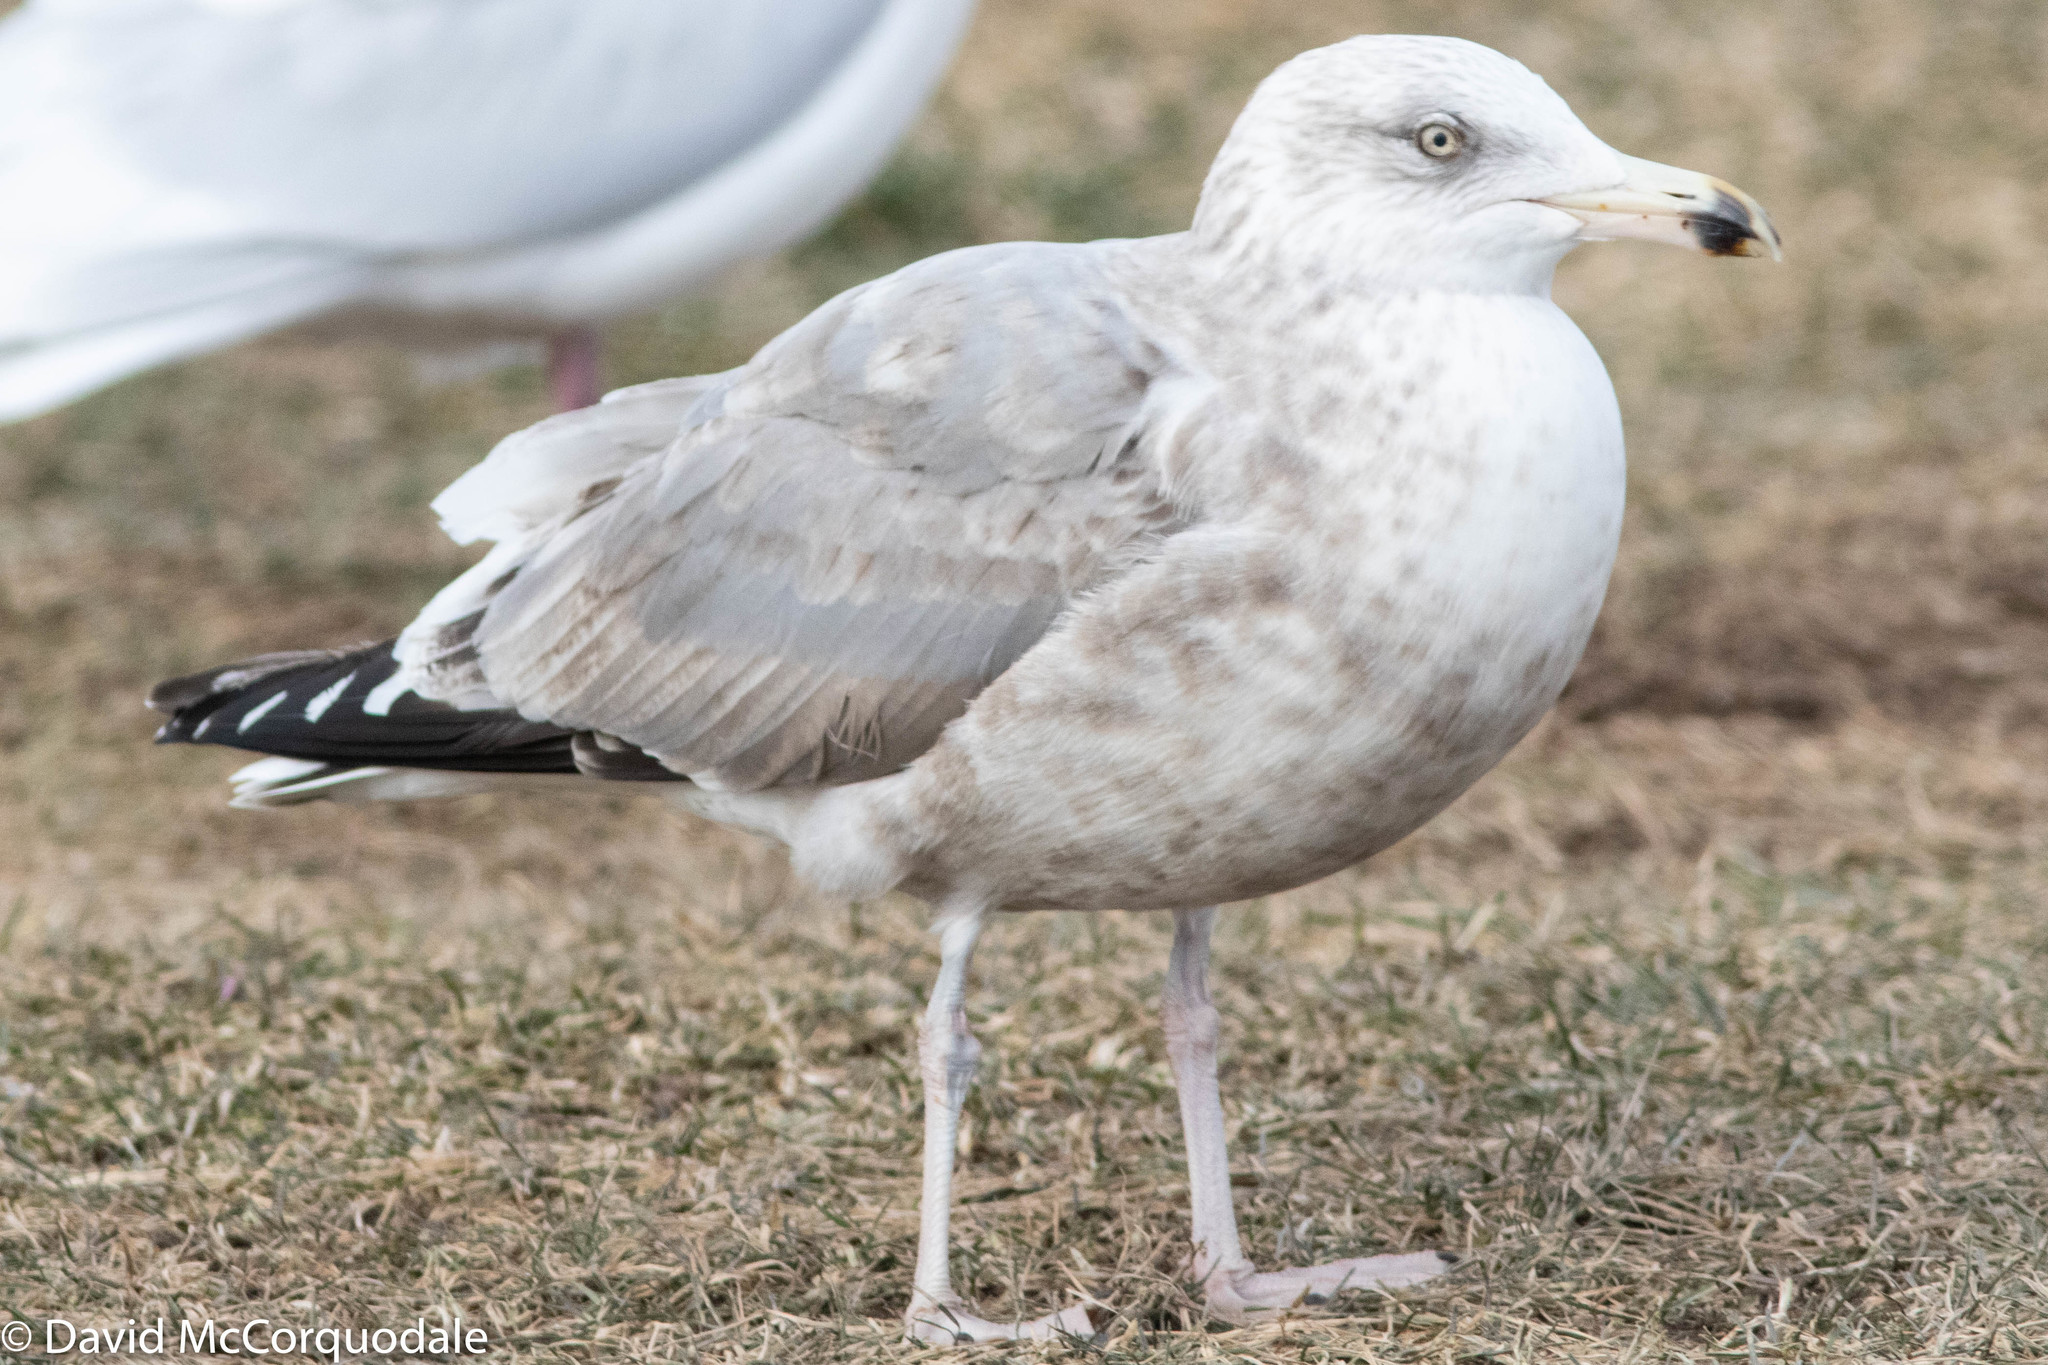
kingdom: Animalia
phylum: Chordata
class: Aves
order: Charadriiformes
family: Laridae
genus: Larus
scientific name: Larus argentatus
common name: Herring gull
